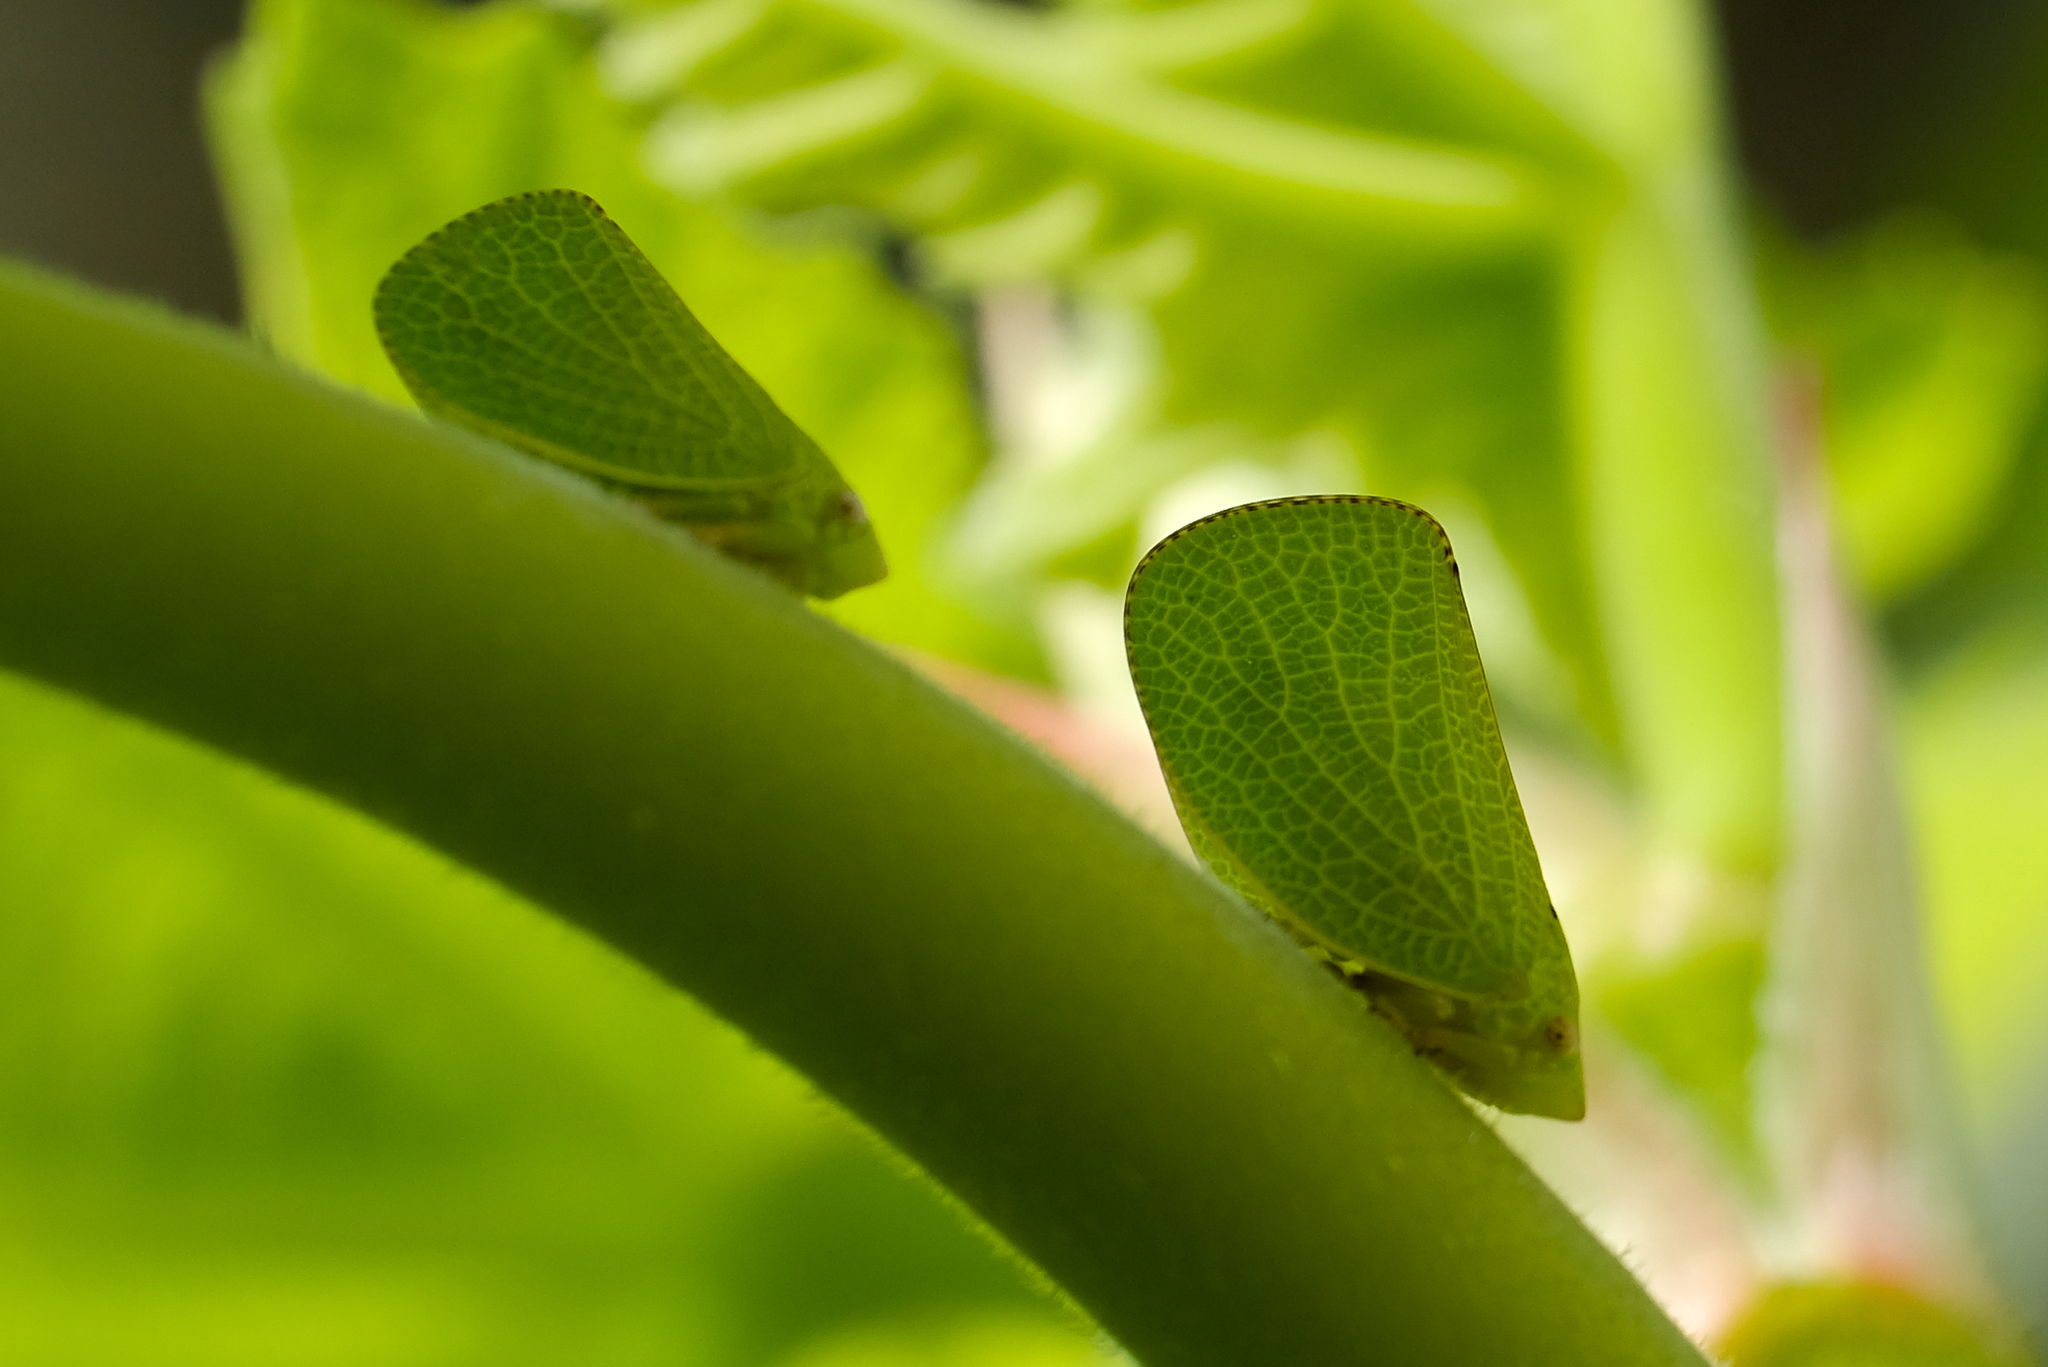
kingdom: Animalia
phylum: Arthropoda
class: Insecta
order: Hemiptera
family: Acanaloniidae
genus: Acanalonia
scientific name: Acanalonia conica
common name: Green cone-headed planthopper
